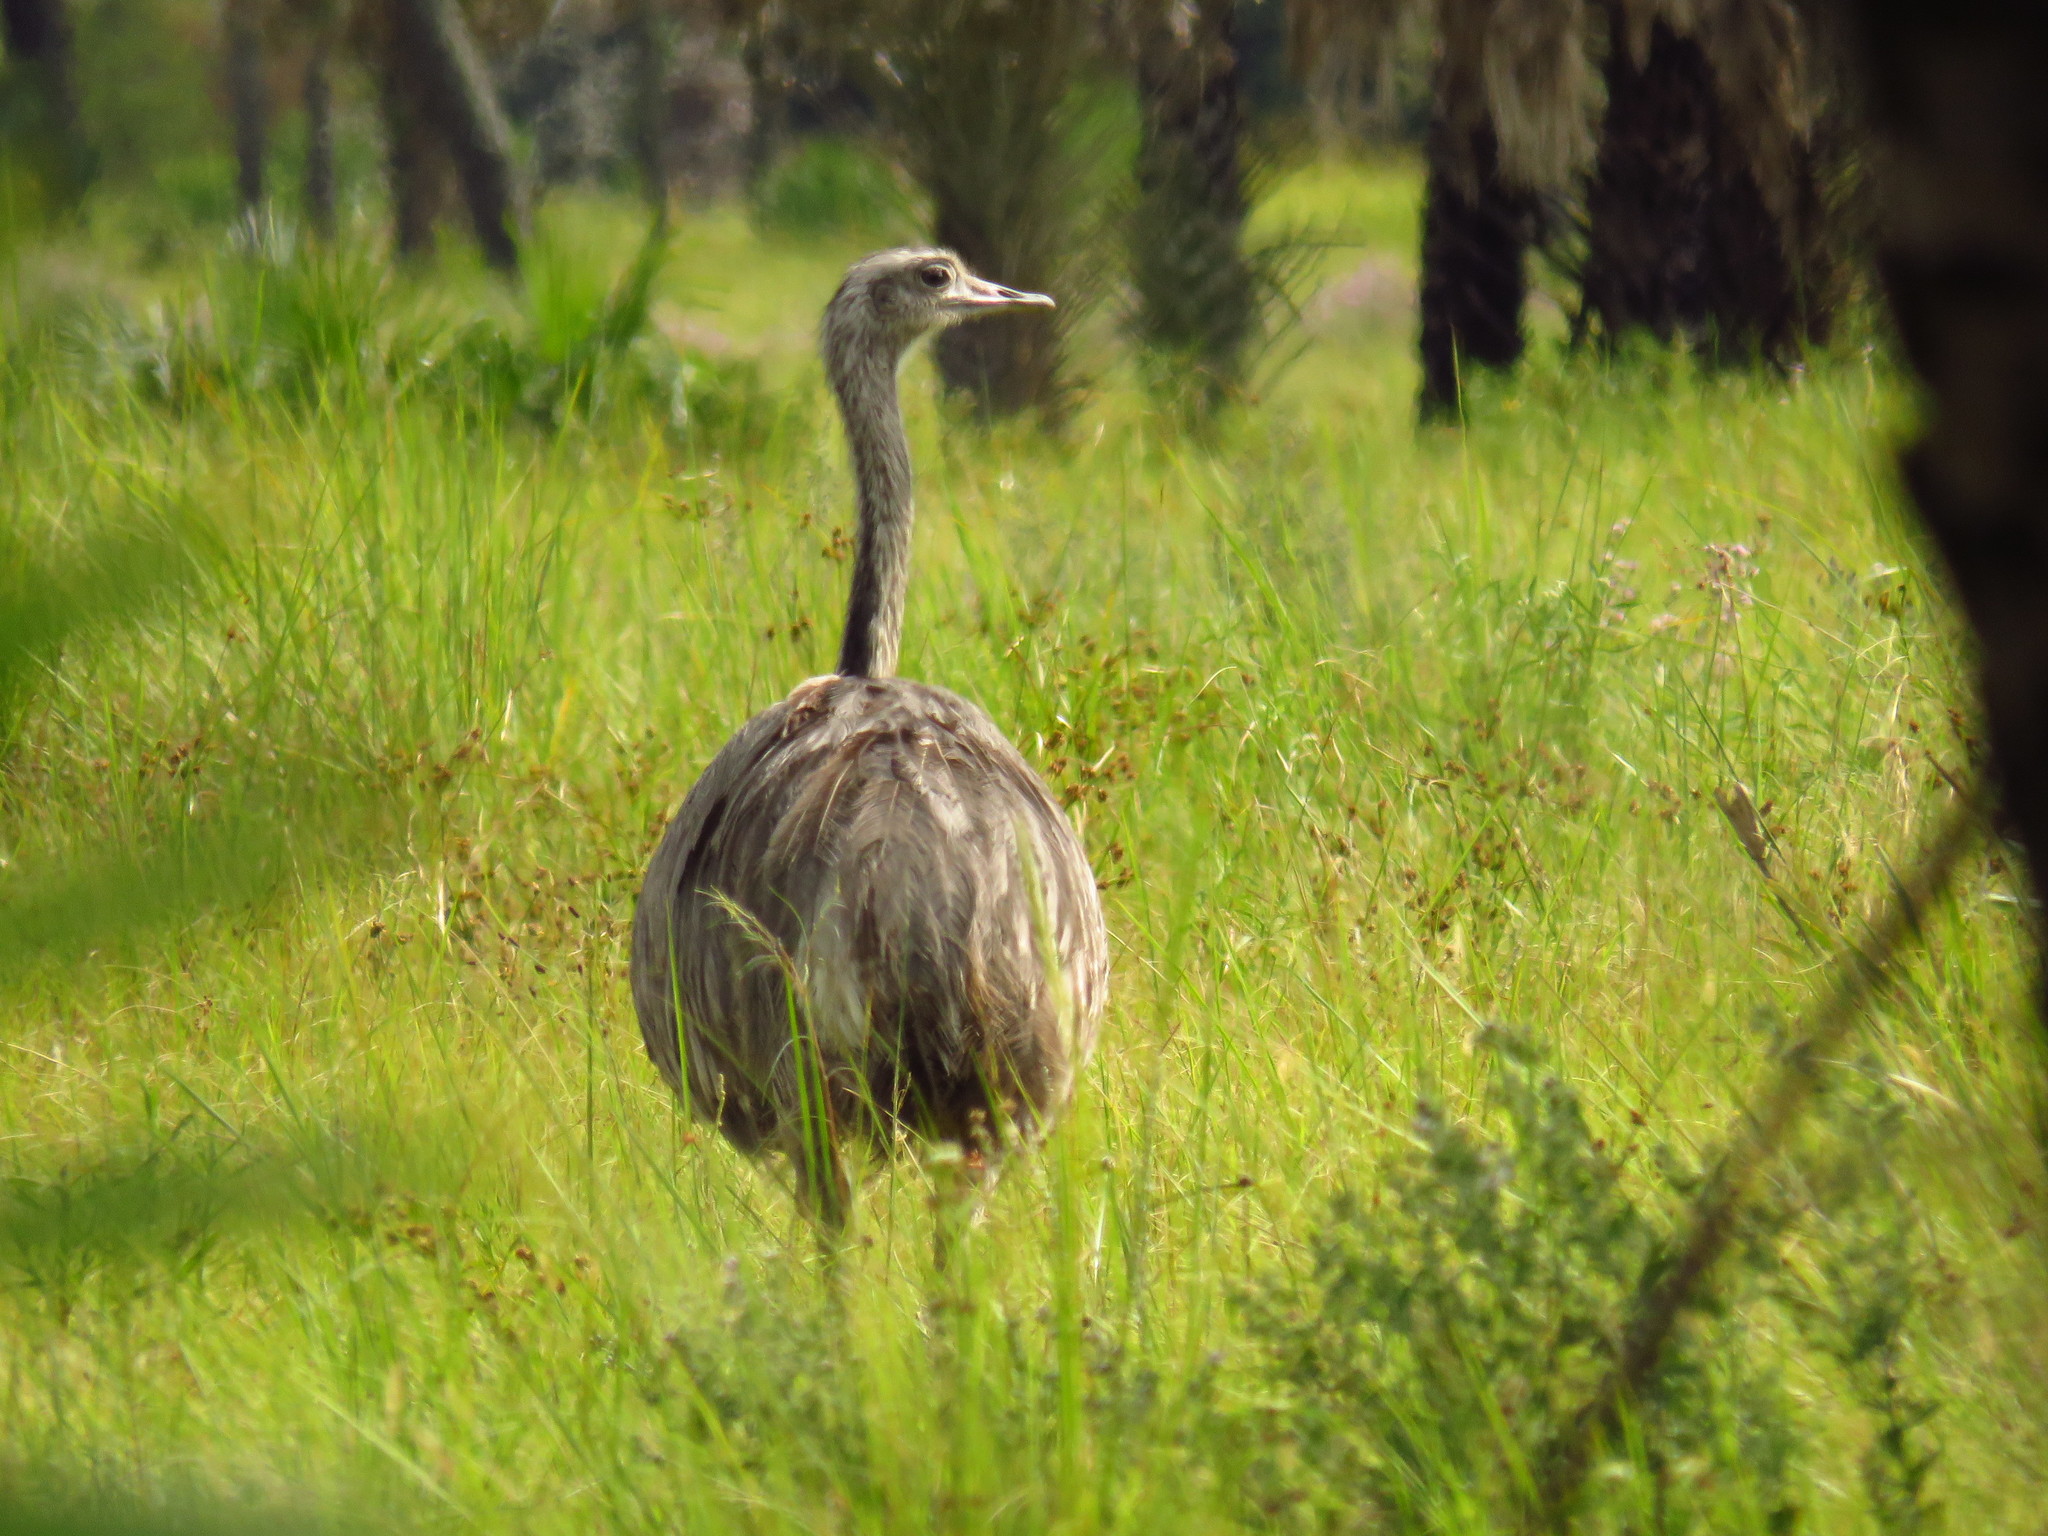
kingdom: Animalia
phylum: Chordata
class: Aves
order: Rheiformes
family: Rheidae
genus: Rhea
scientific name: Rhea americana
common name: Greater rhea
